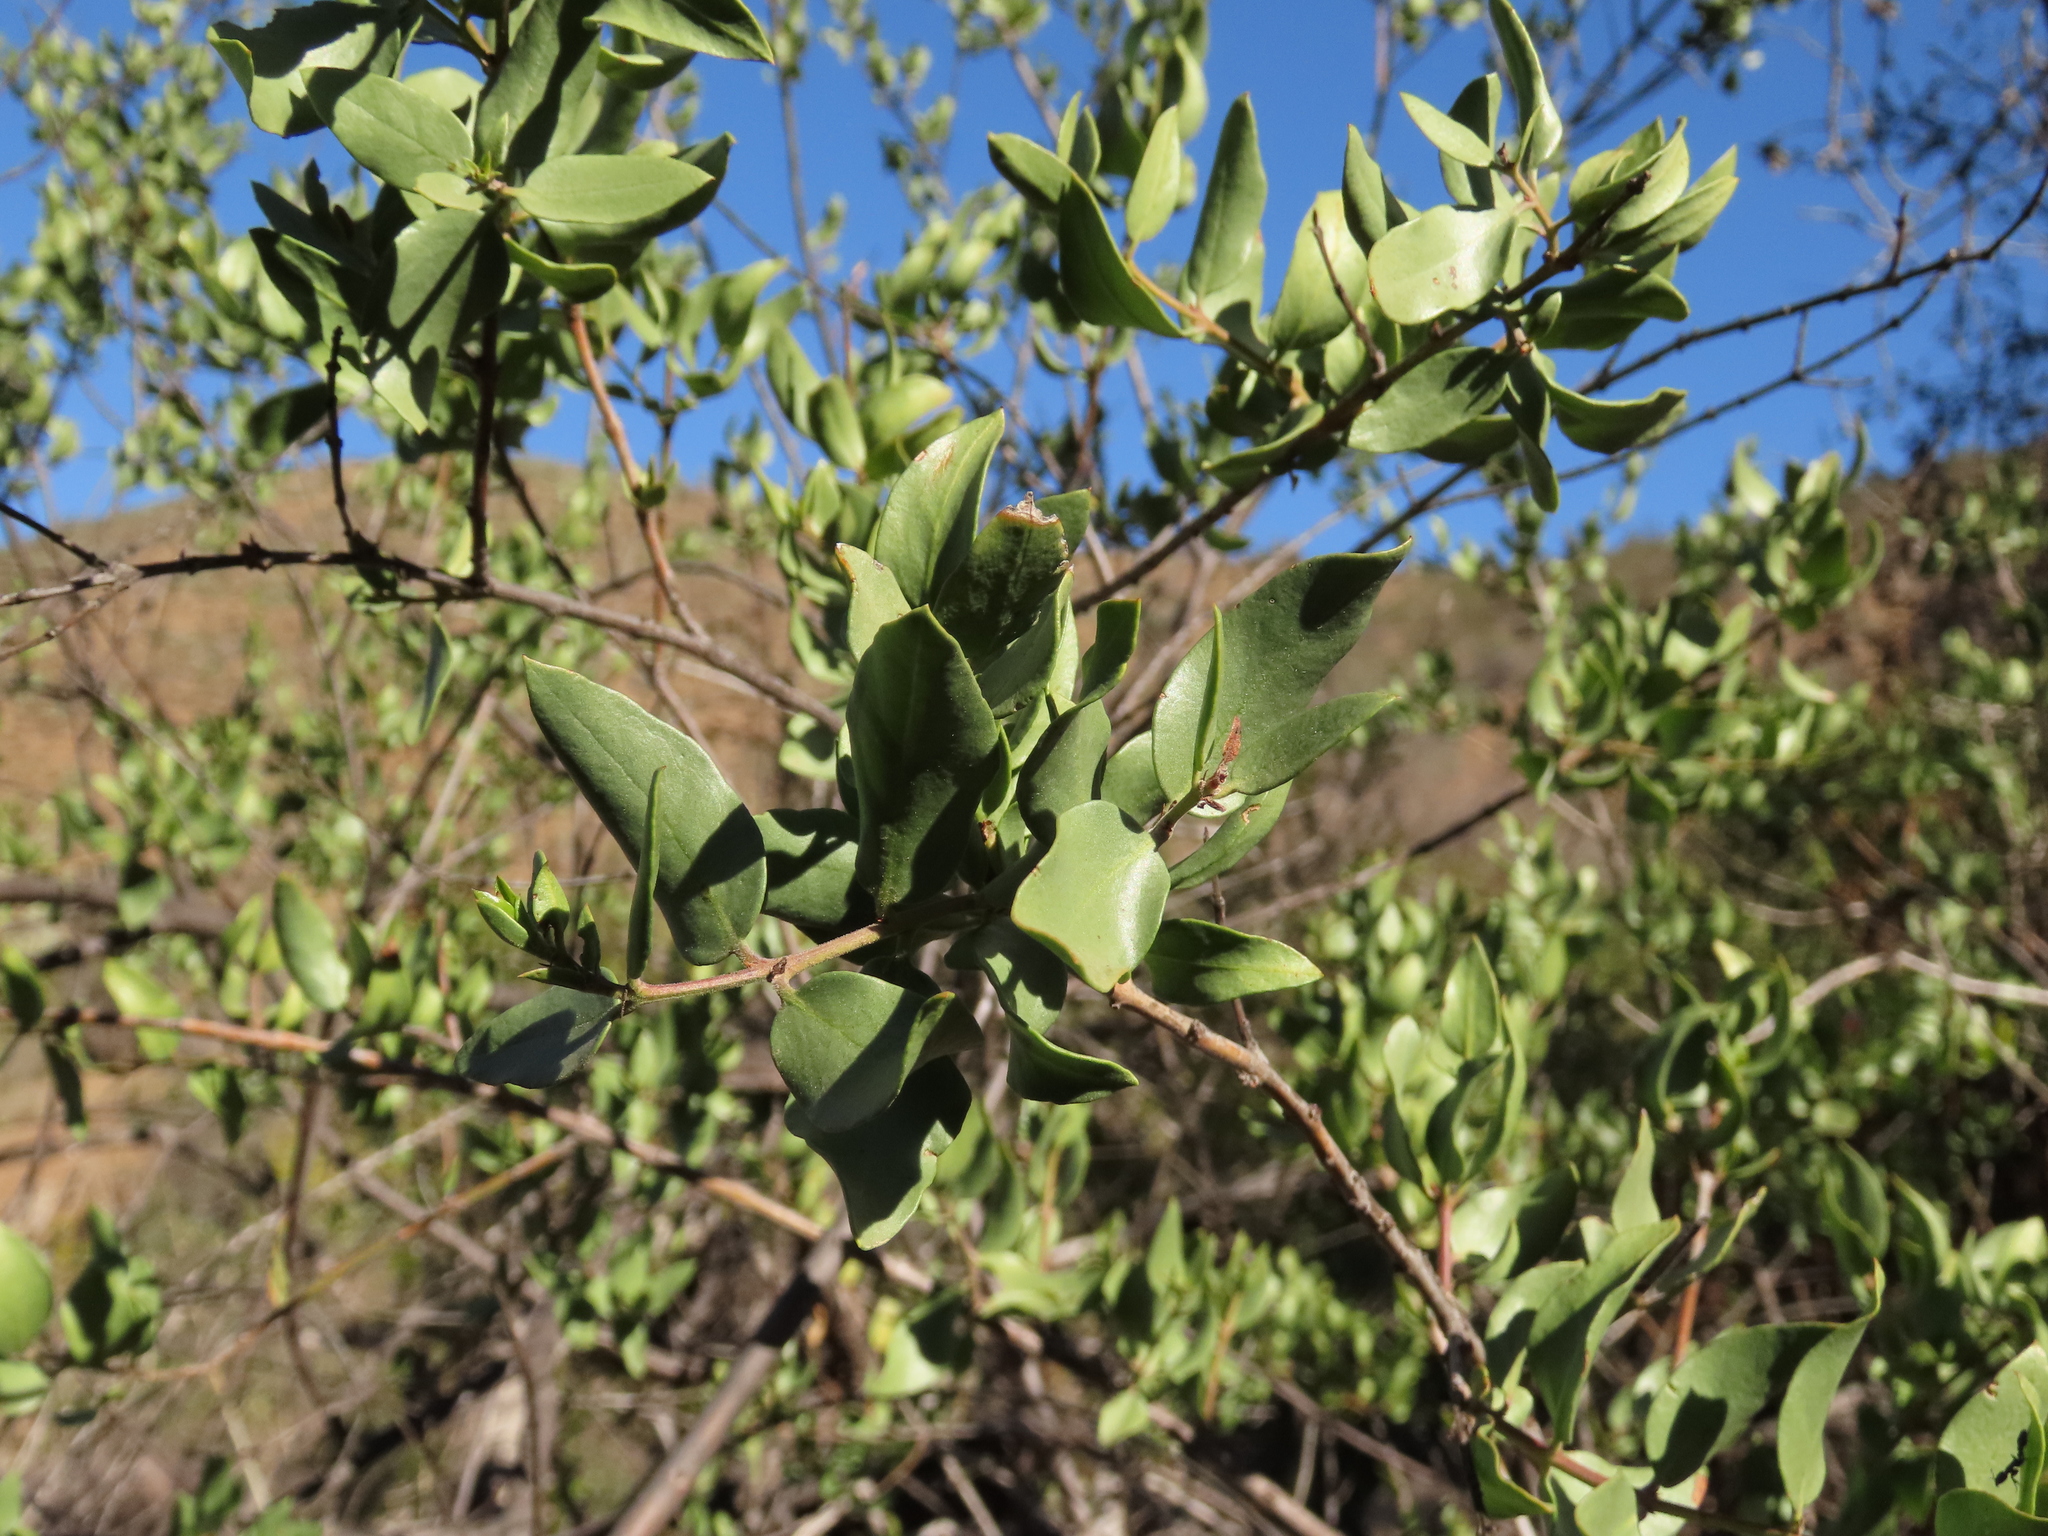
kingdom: Plantae
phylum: Tracheophyta
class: Magnoliopsida
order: Lamiales
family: Plantaginaceae
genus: Monttea
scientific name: Monttea chilensis
